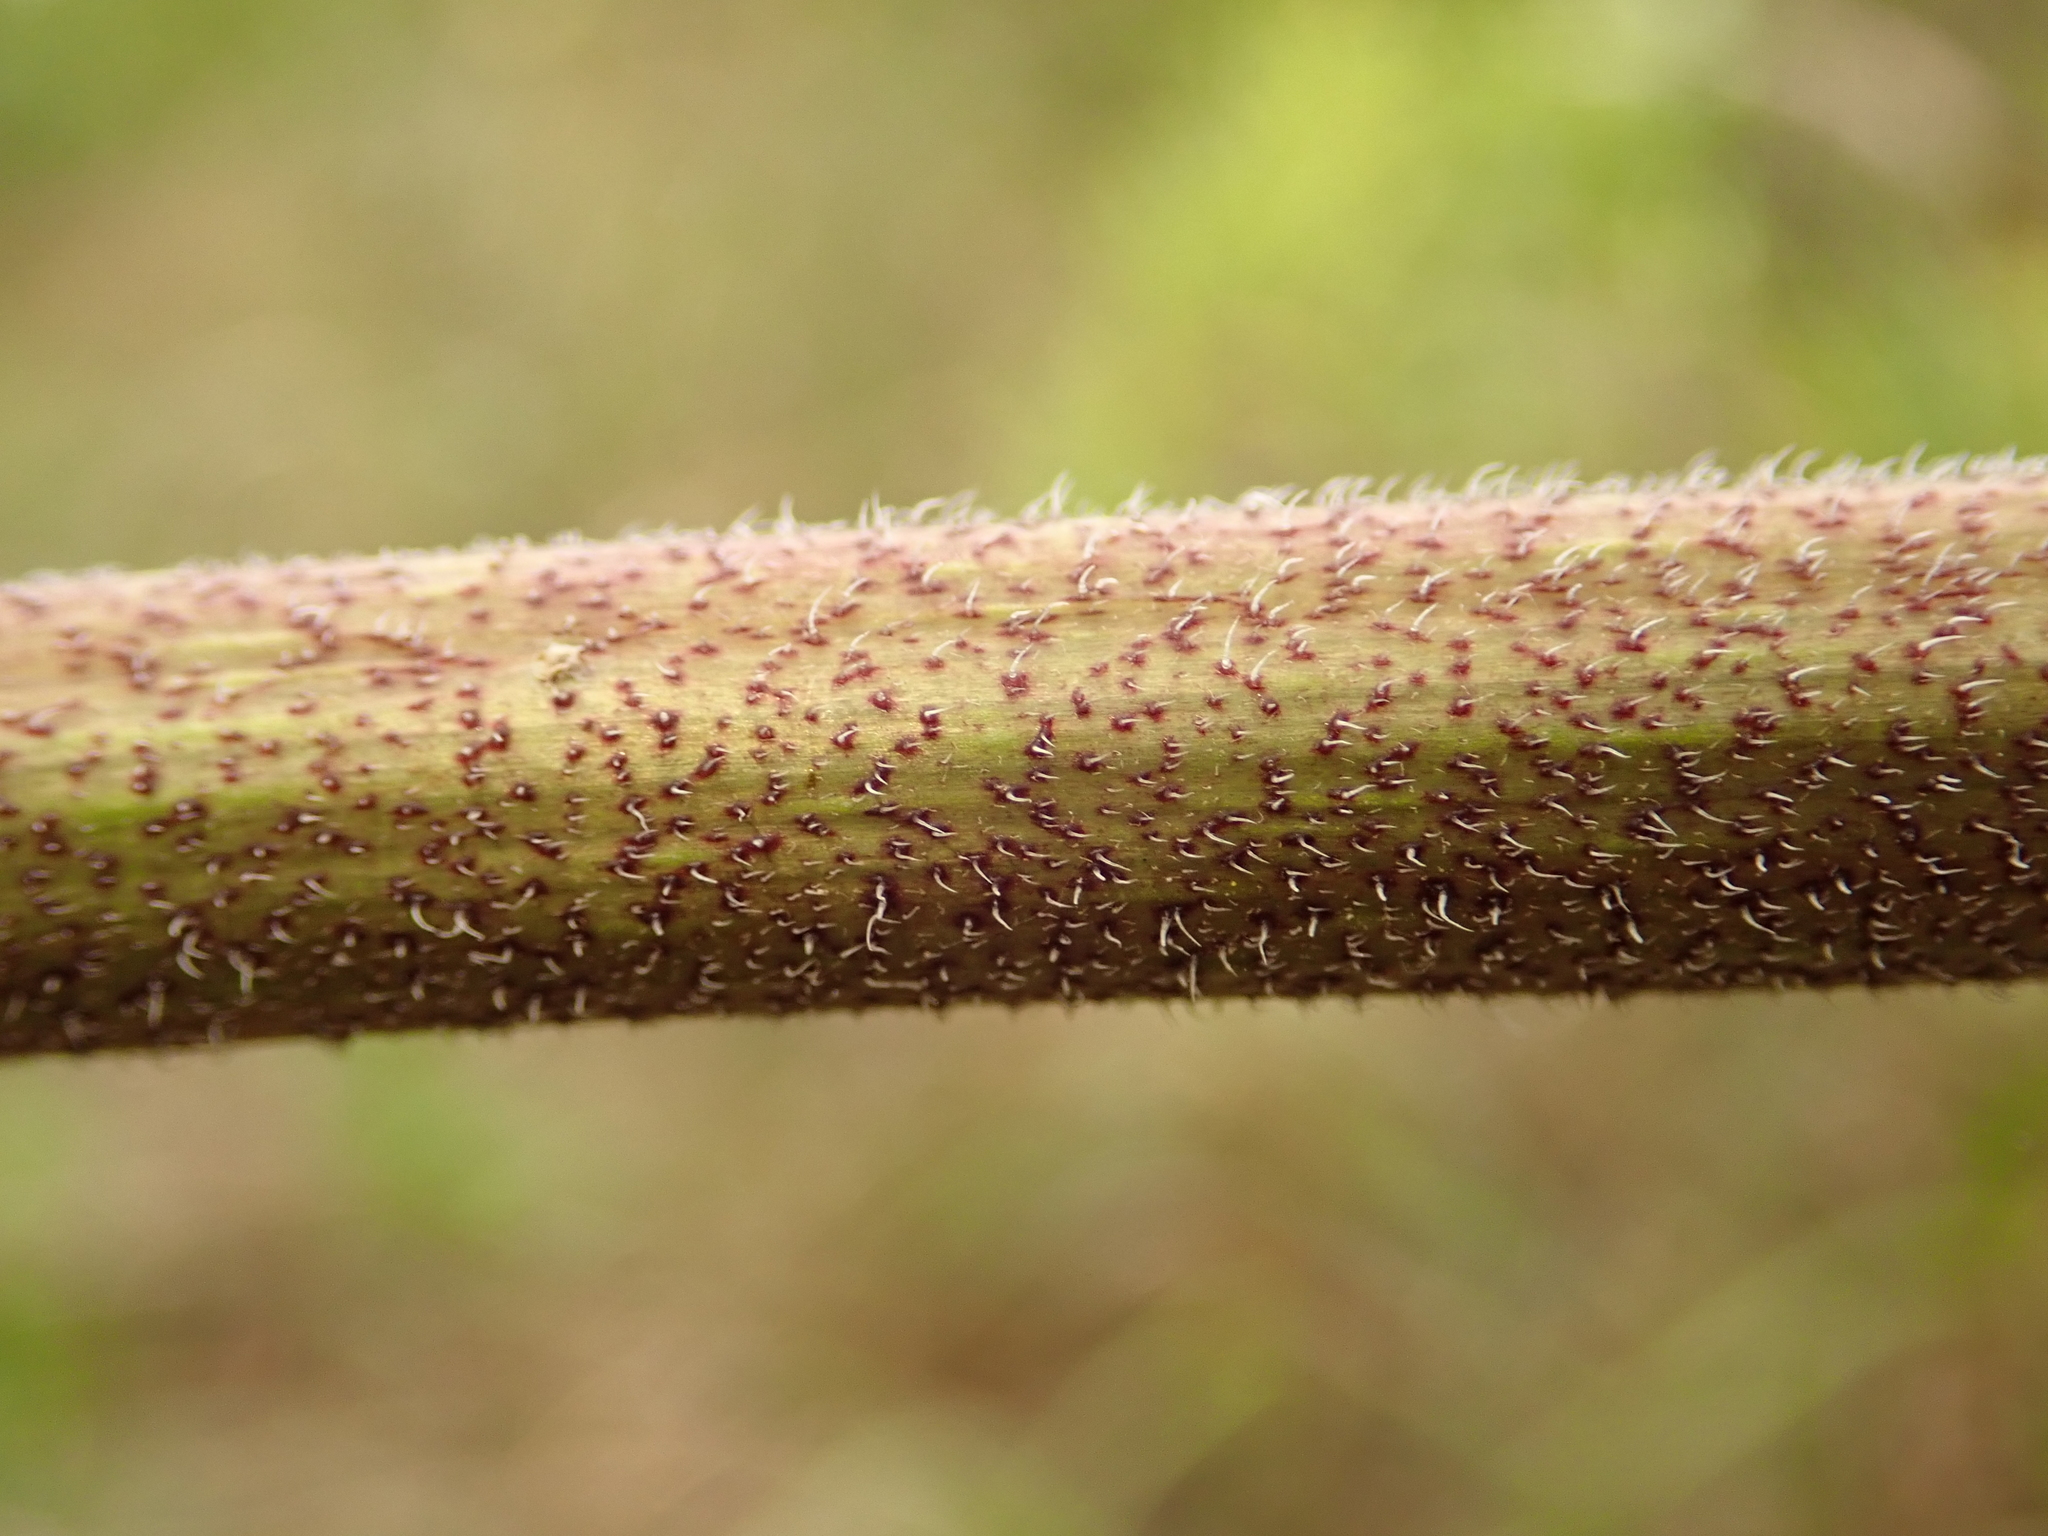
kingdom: Plantae
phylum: Tracheophyta
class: Magnoliopsida
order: Asterales
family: Asteraceae
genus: Helianthus
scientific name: Helianthus tuberosus
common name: Jerusalem artichoke
